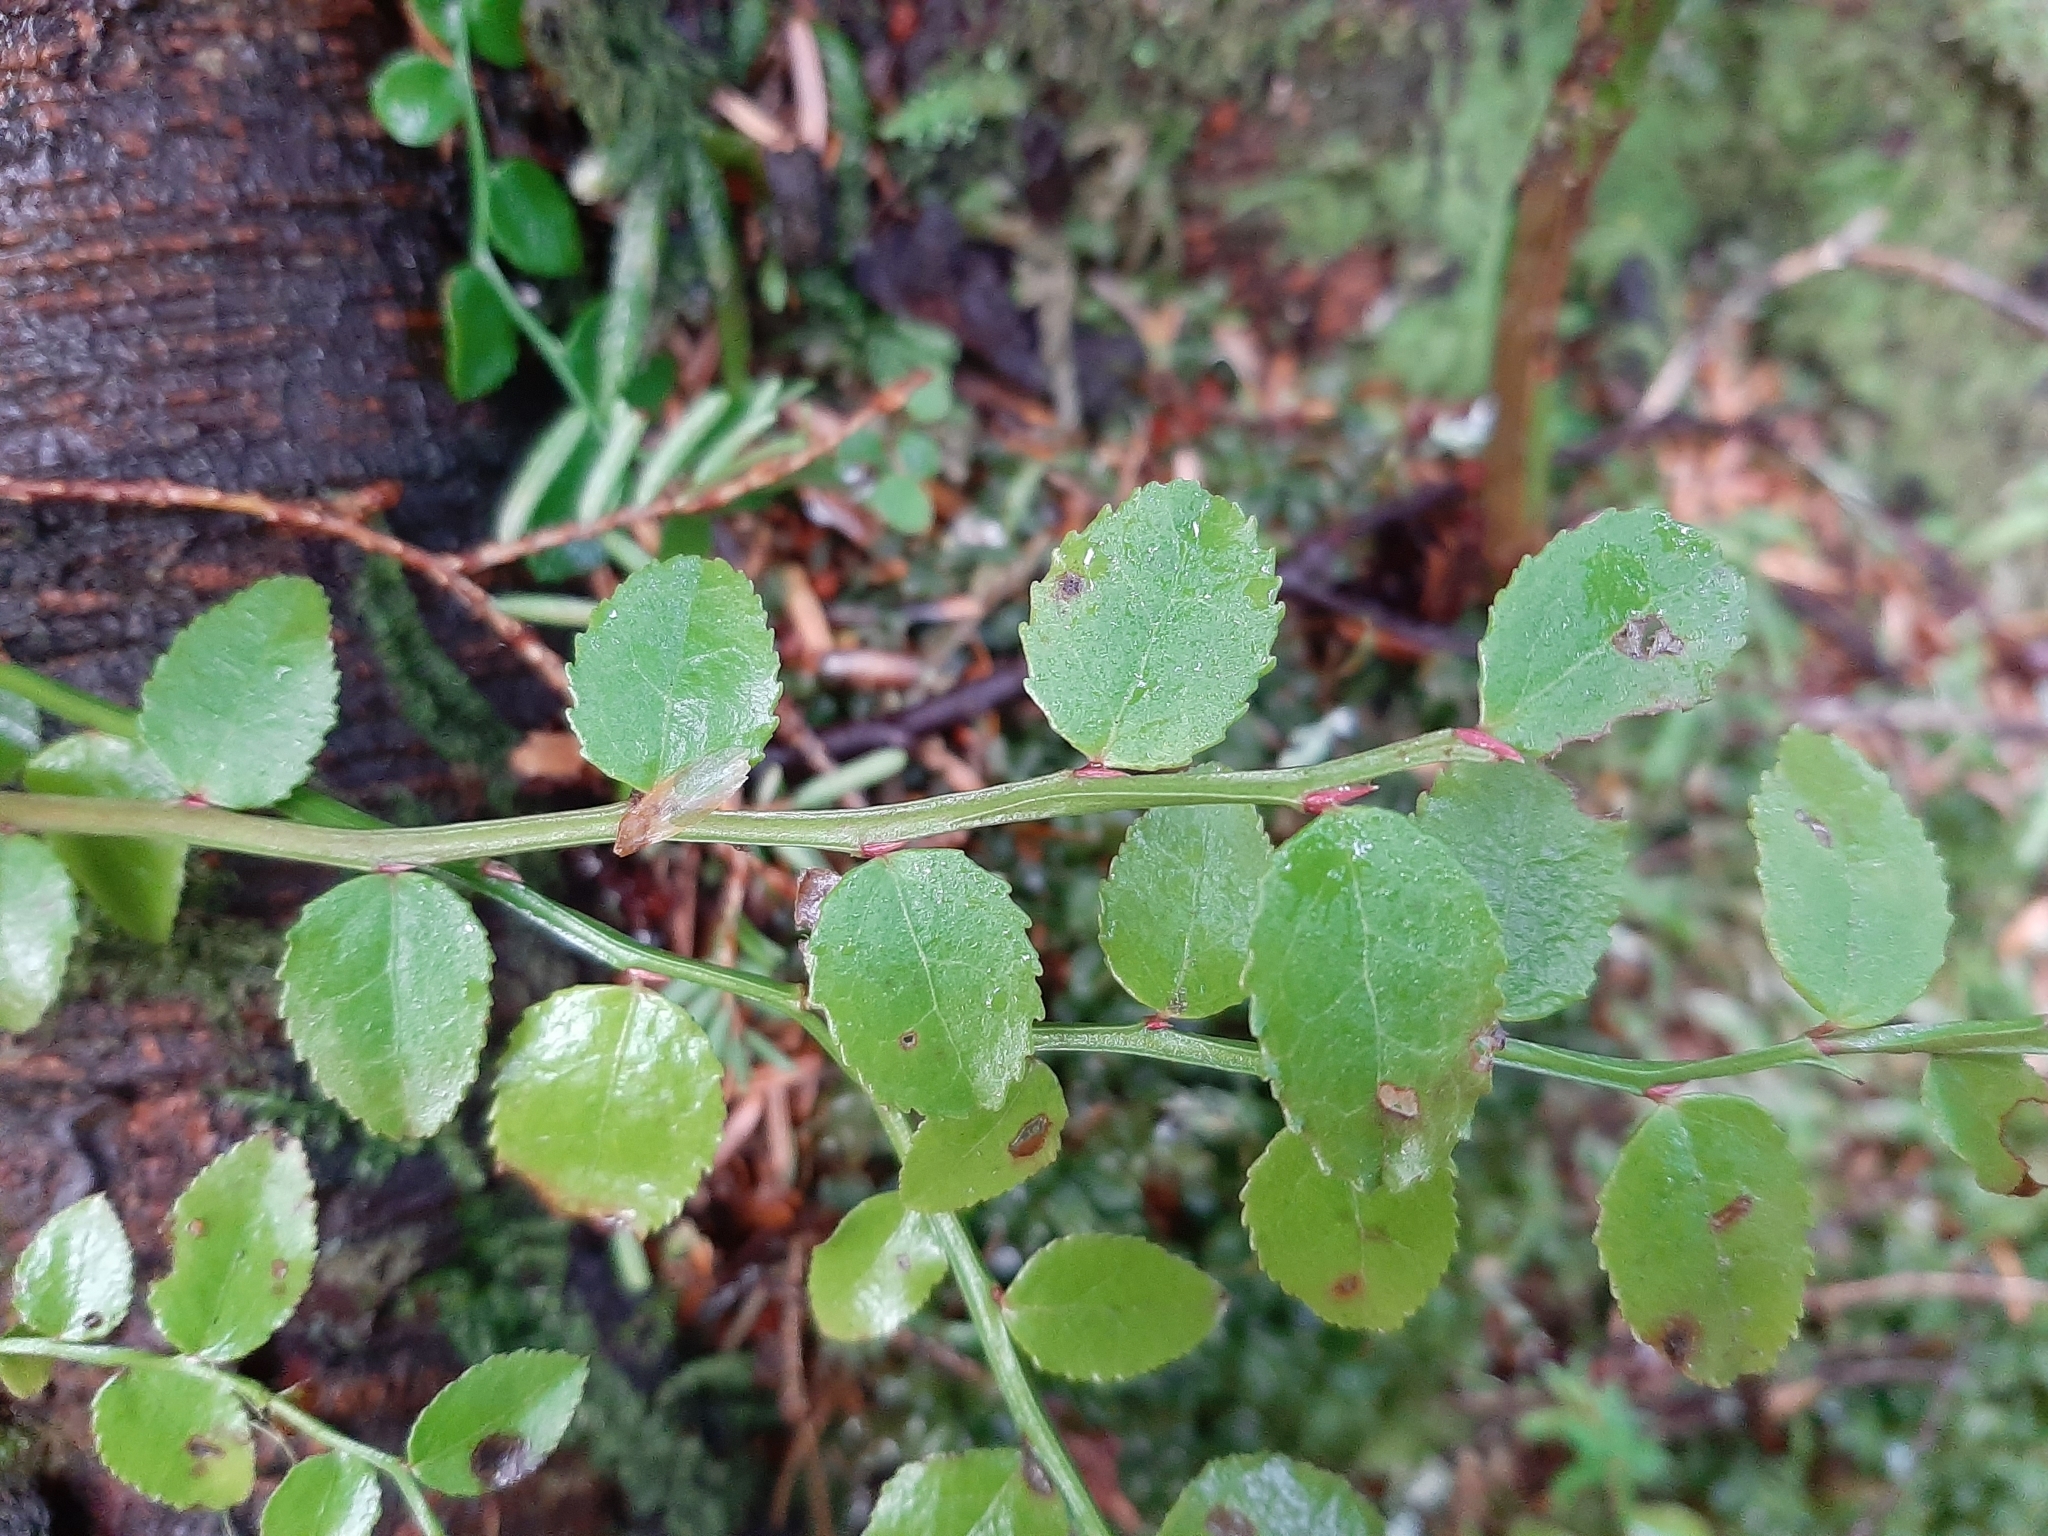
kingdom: Plantae
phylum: Tracheophyta
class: Magnoliopsida
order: Ericales
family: Ericaceae
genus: Vaccinium
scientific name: Vaccinium parvifolium
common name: Red-huckleberry
